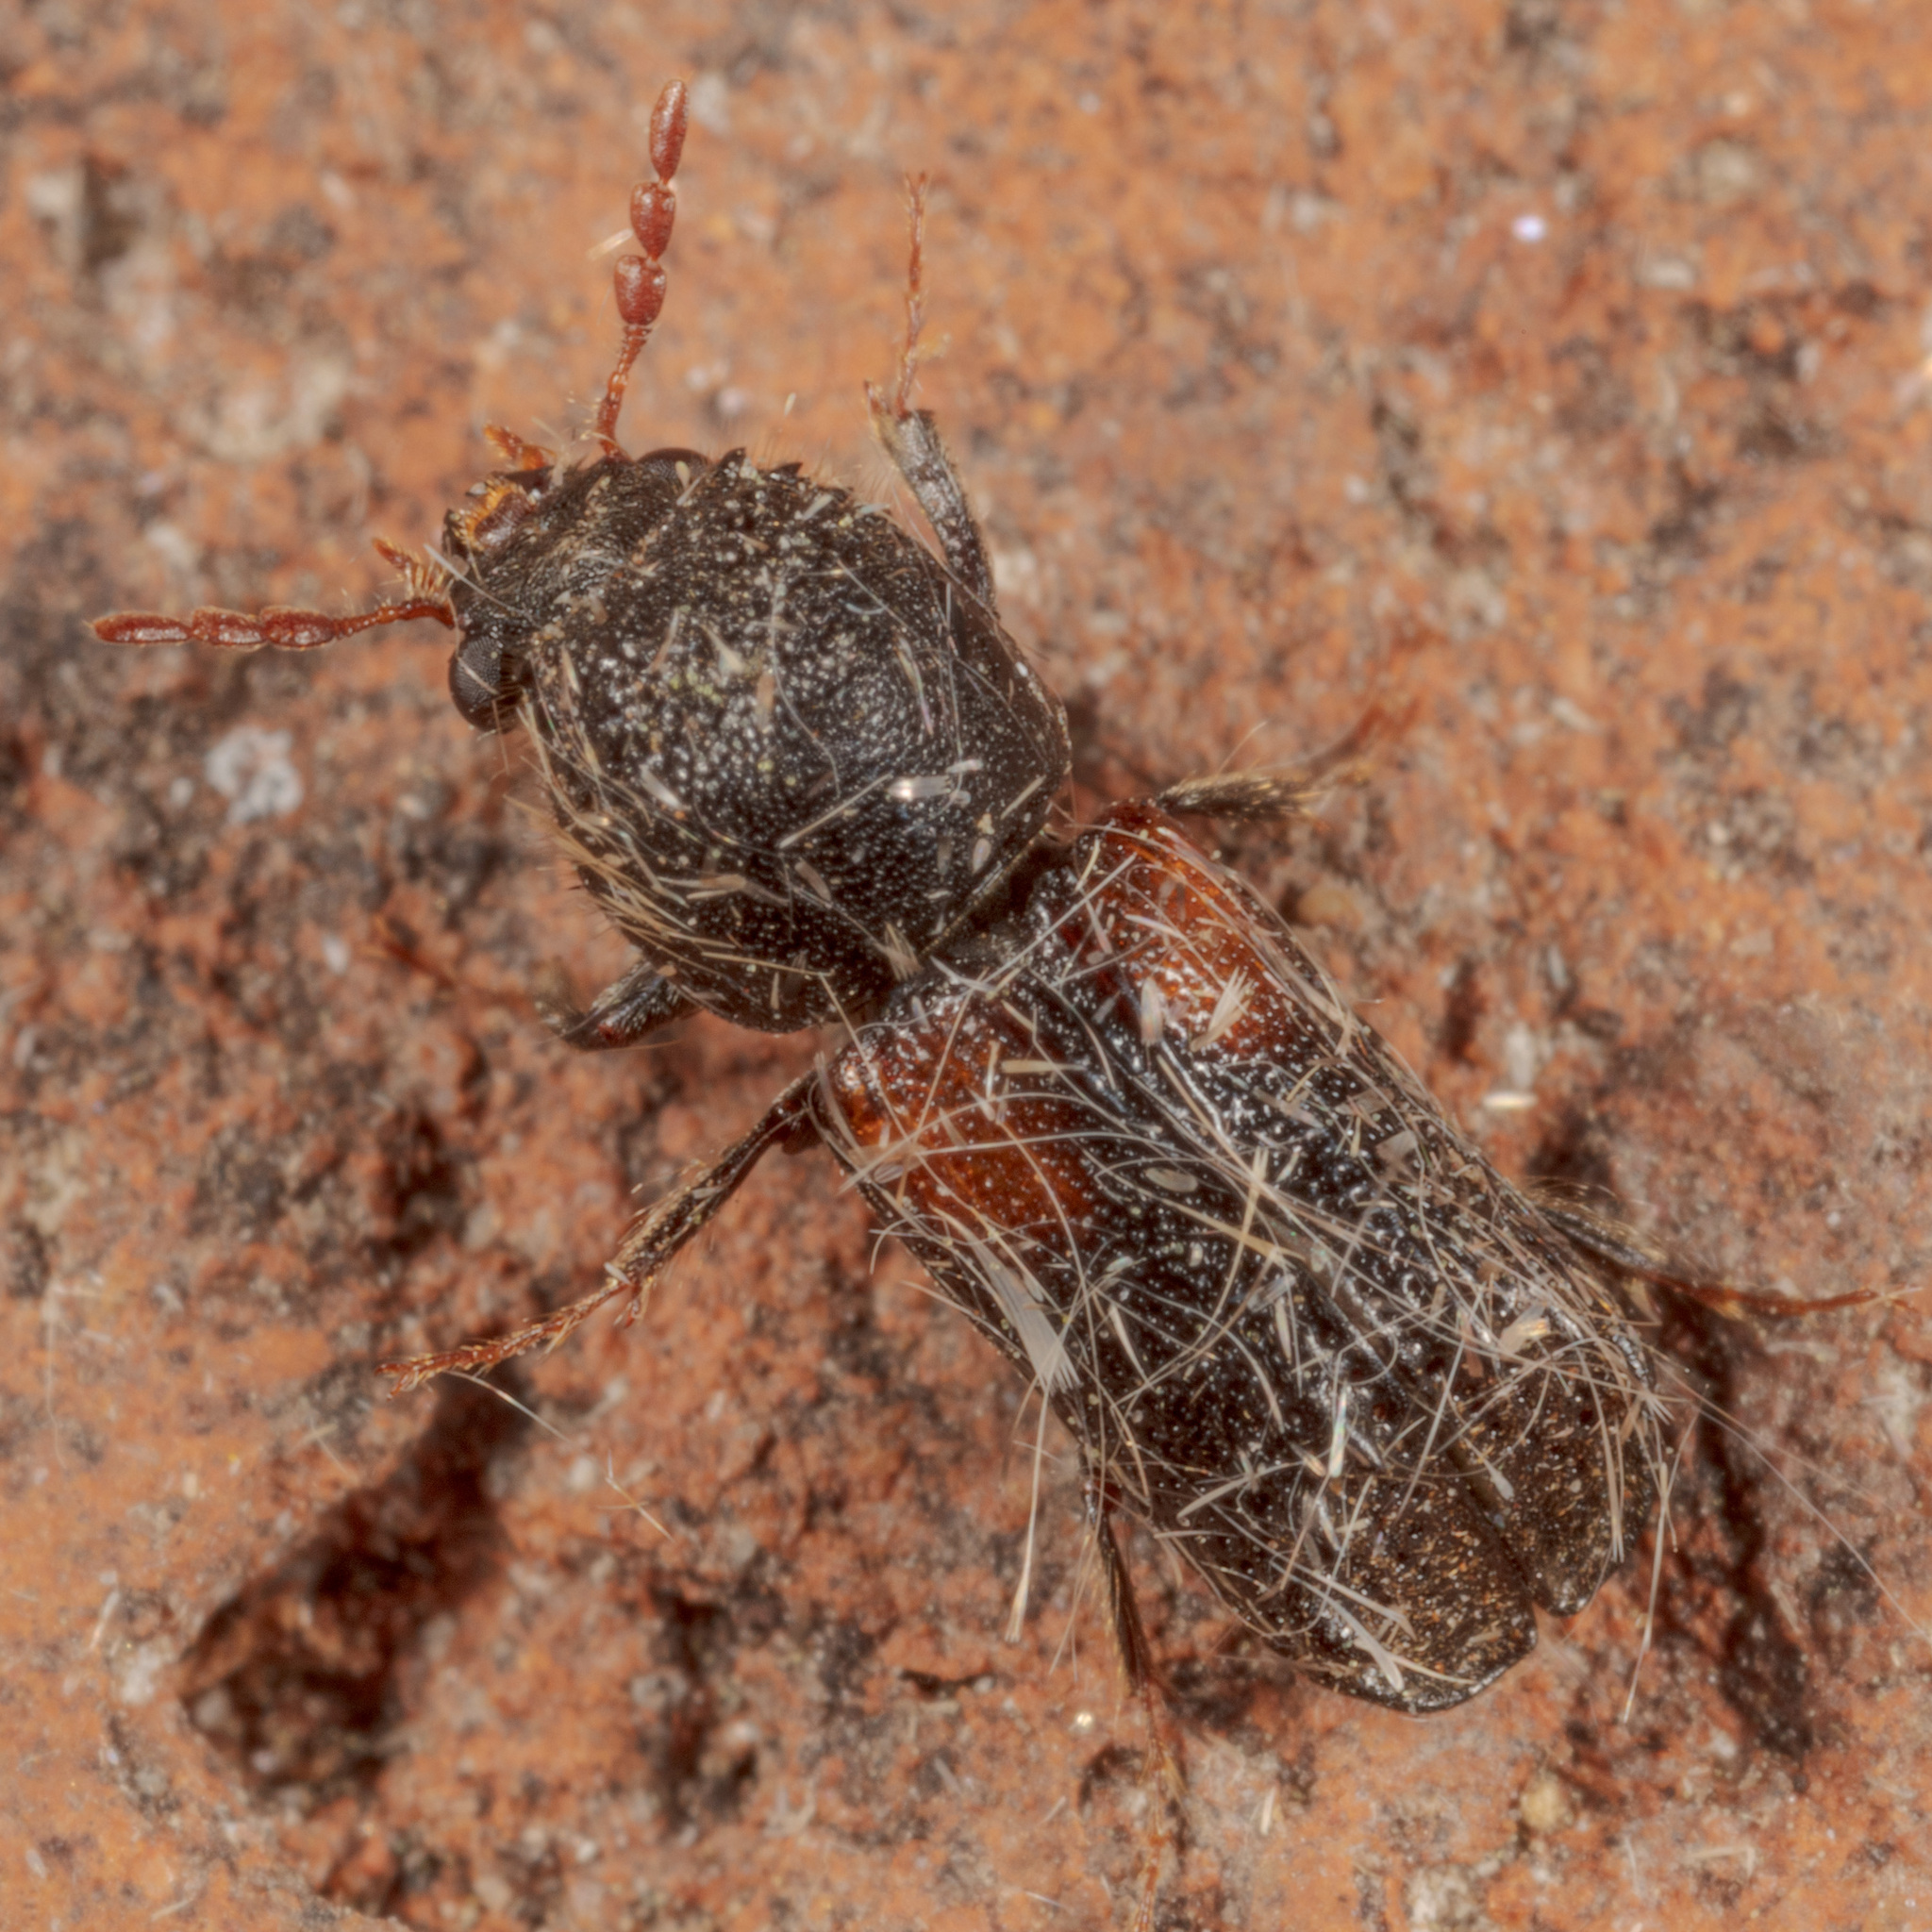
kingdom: Animalia
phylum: Arthropoda
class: Insecta
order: Coleoptera
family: Bostrichidae
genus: Xylobiops
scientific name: Xylobiops basilaris
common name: Red-shouldered bostrichid
